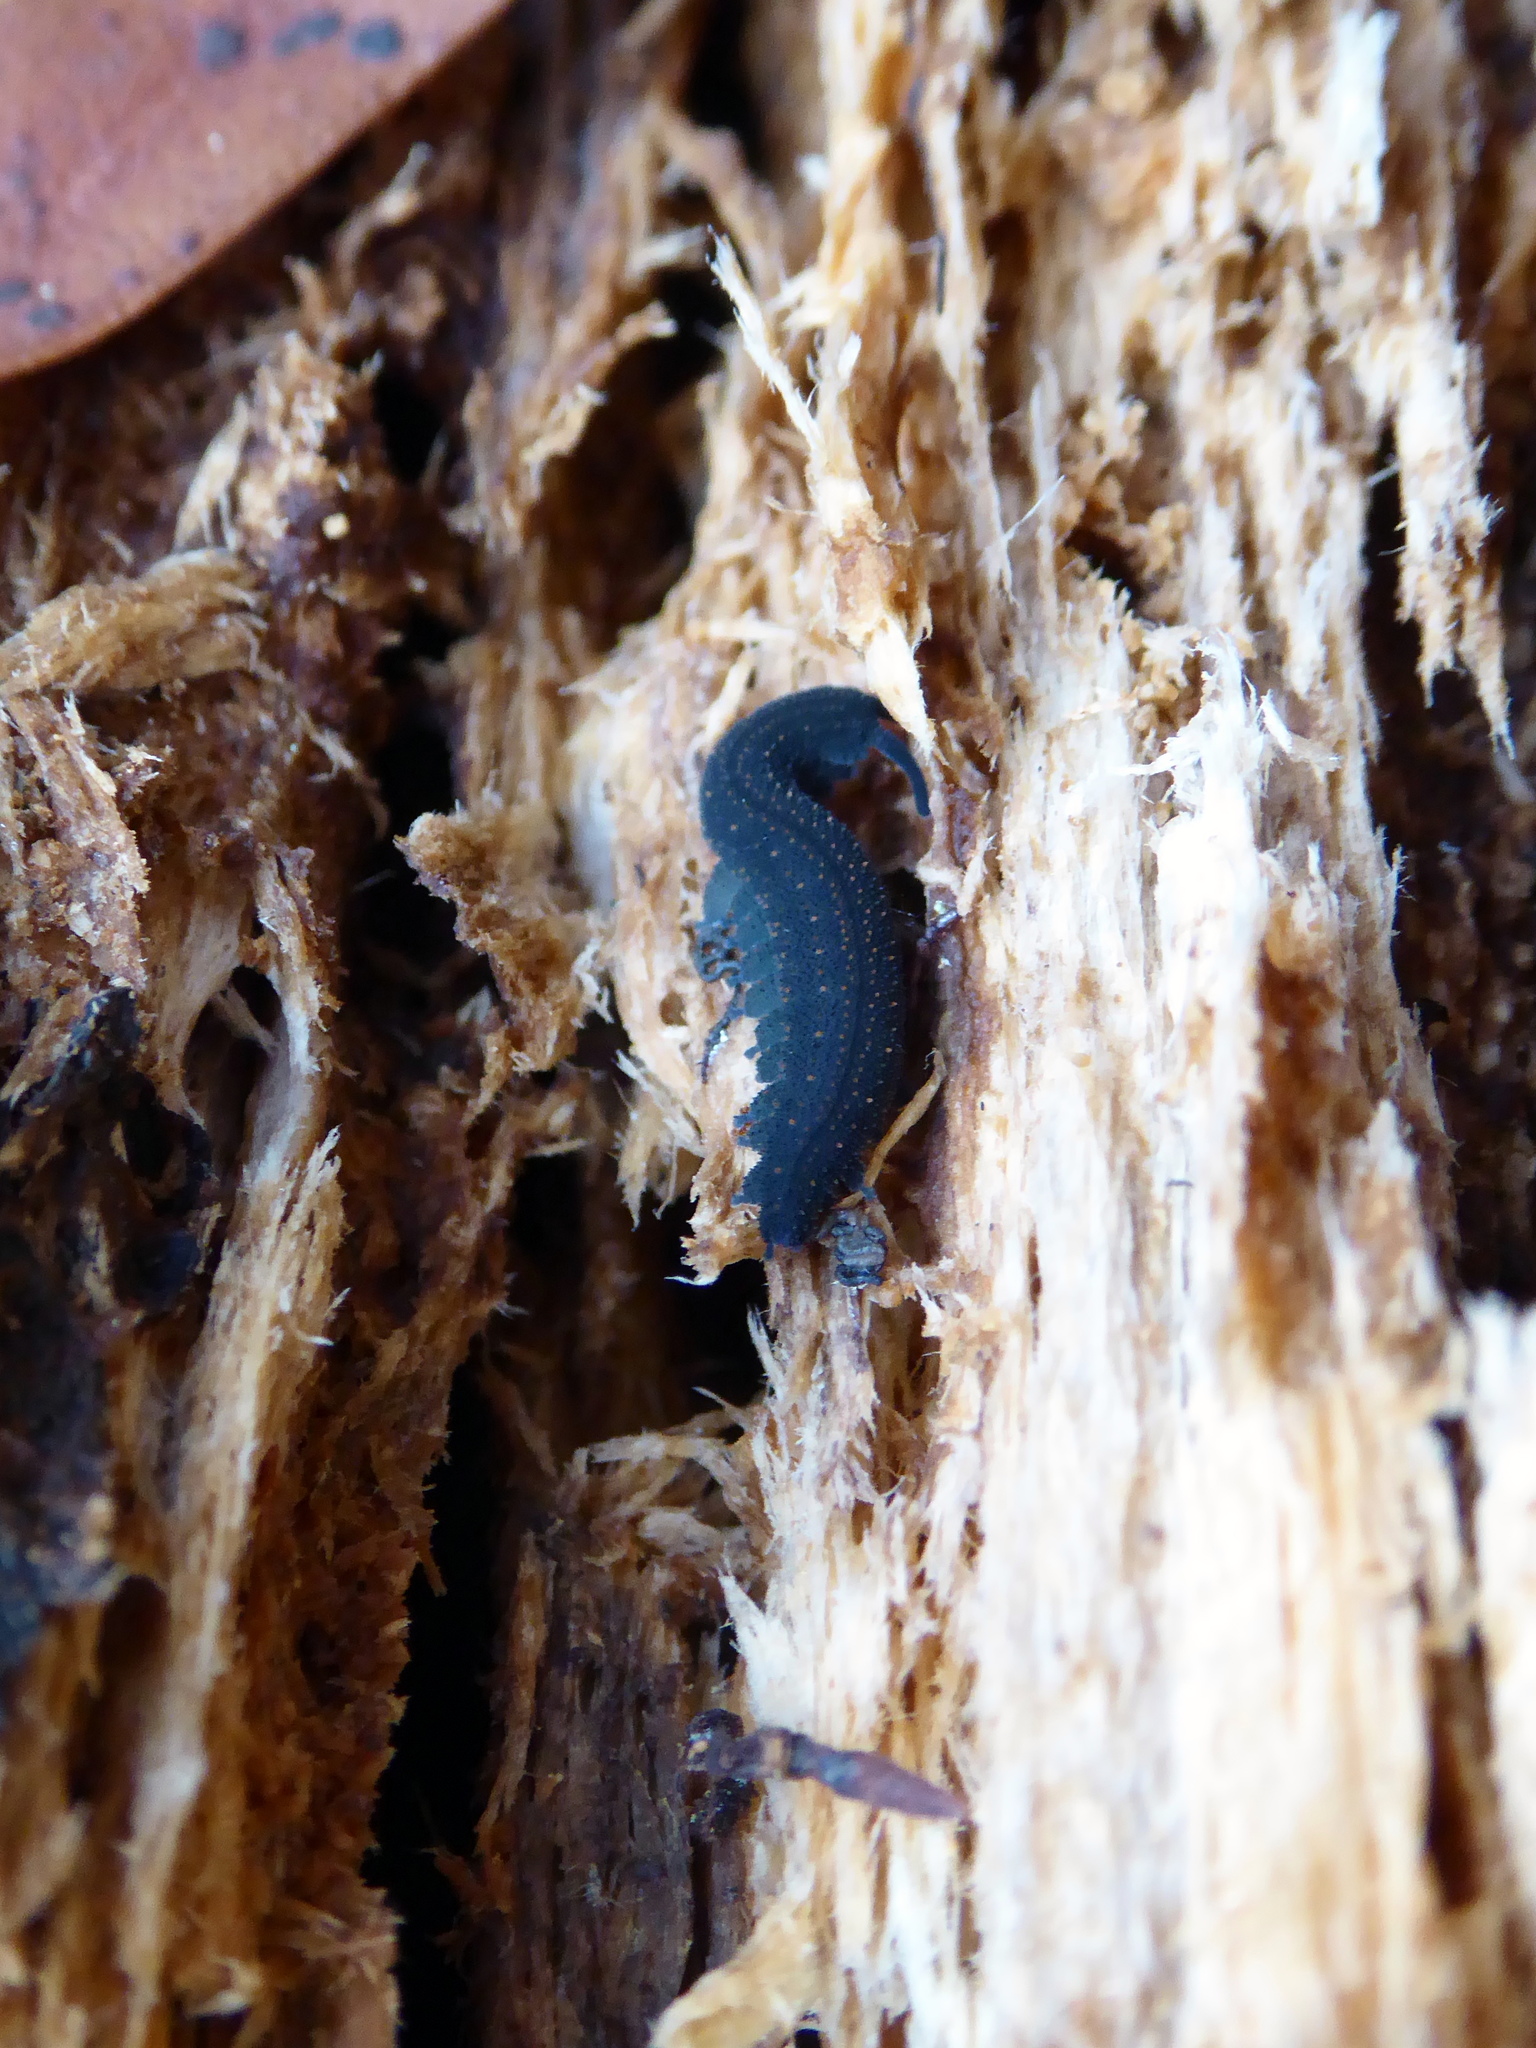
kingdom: Animalia
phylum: Onychophora
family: Peripatopsidae
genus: Euperipatoides
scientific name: Euperipatoides rowelli
